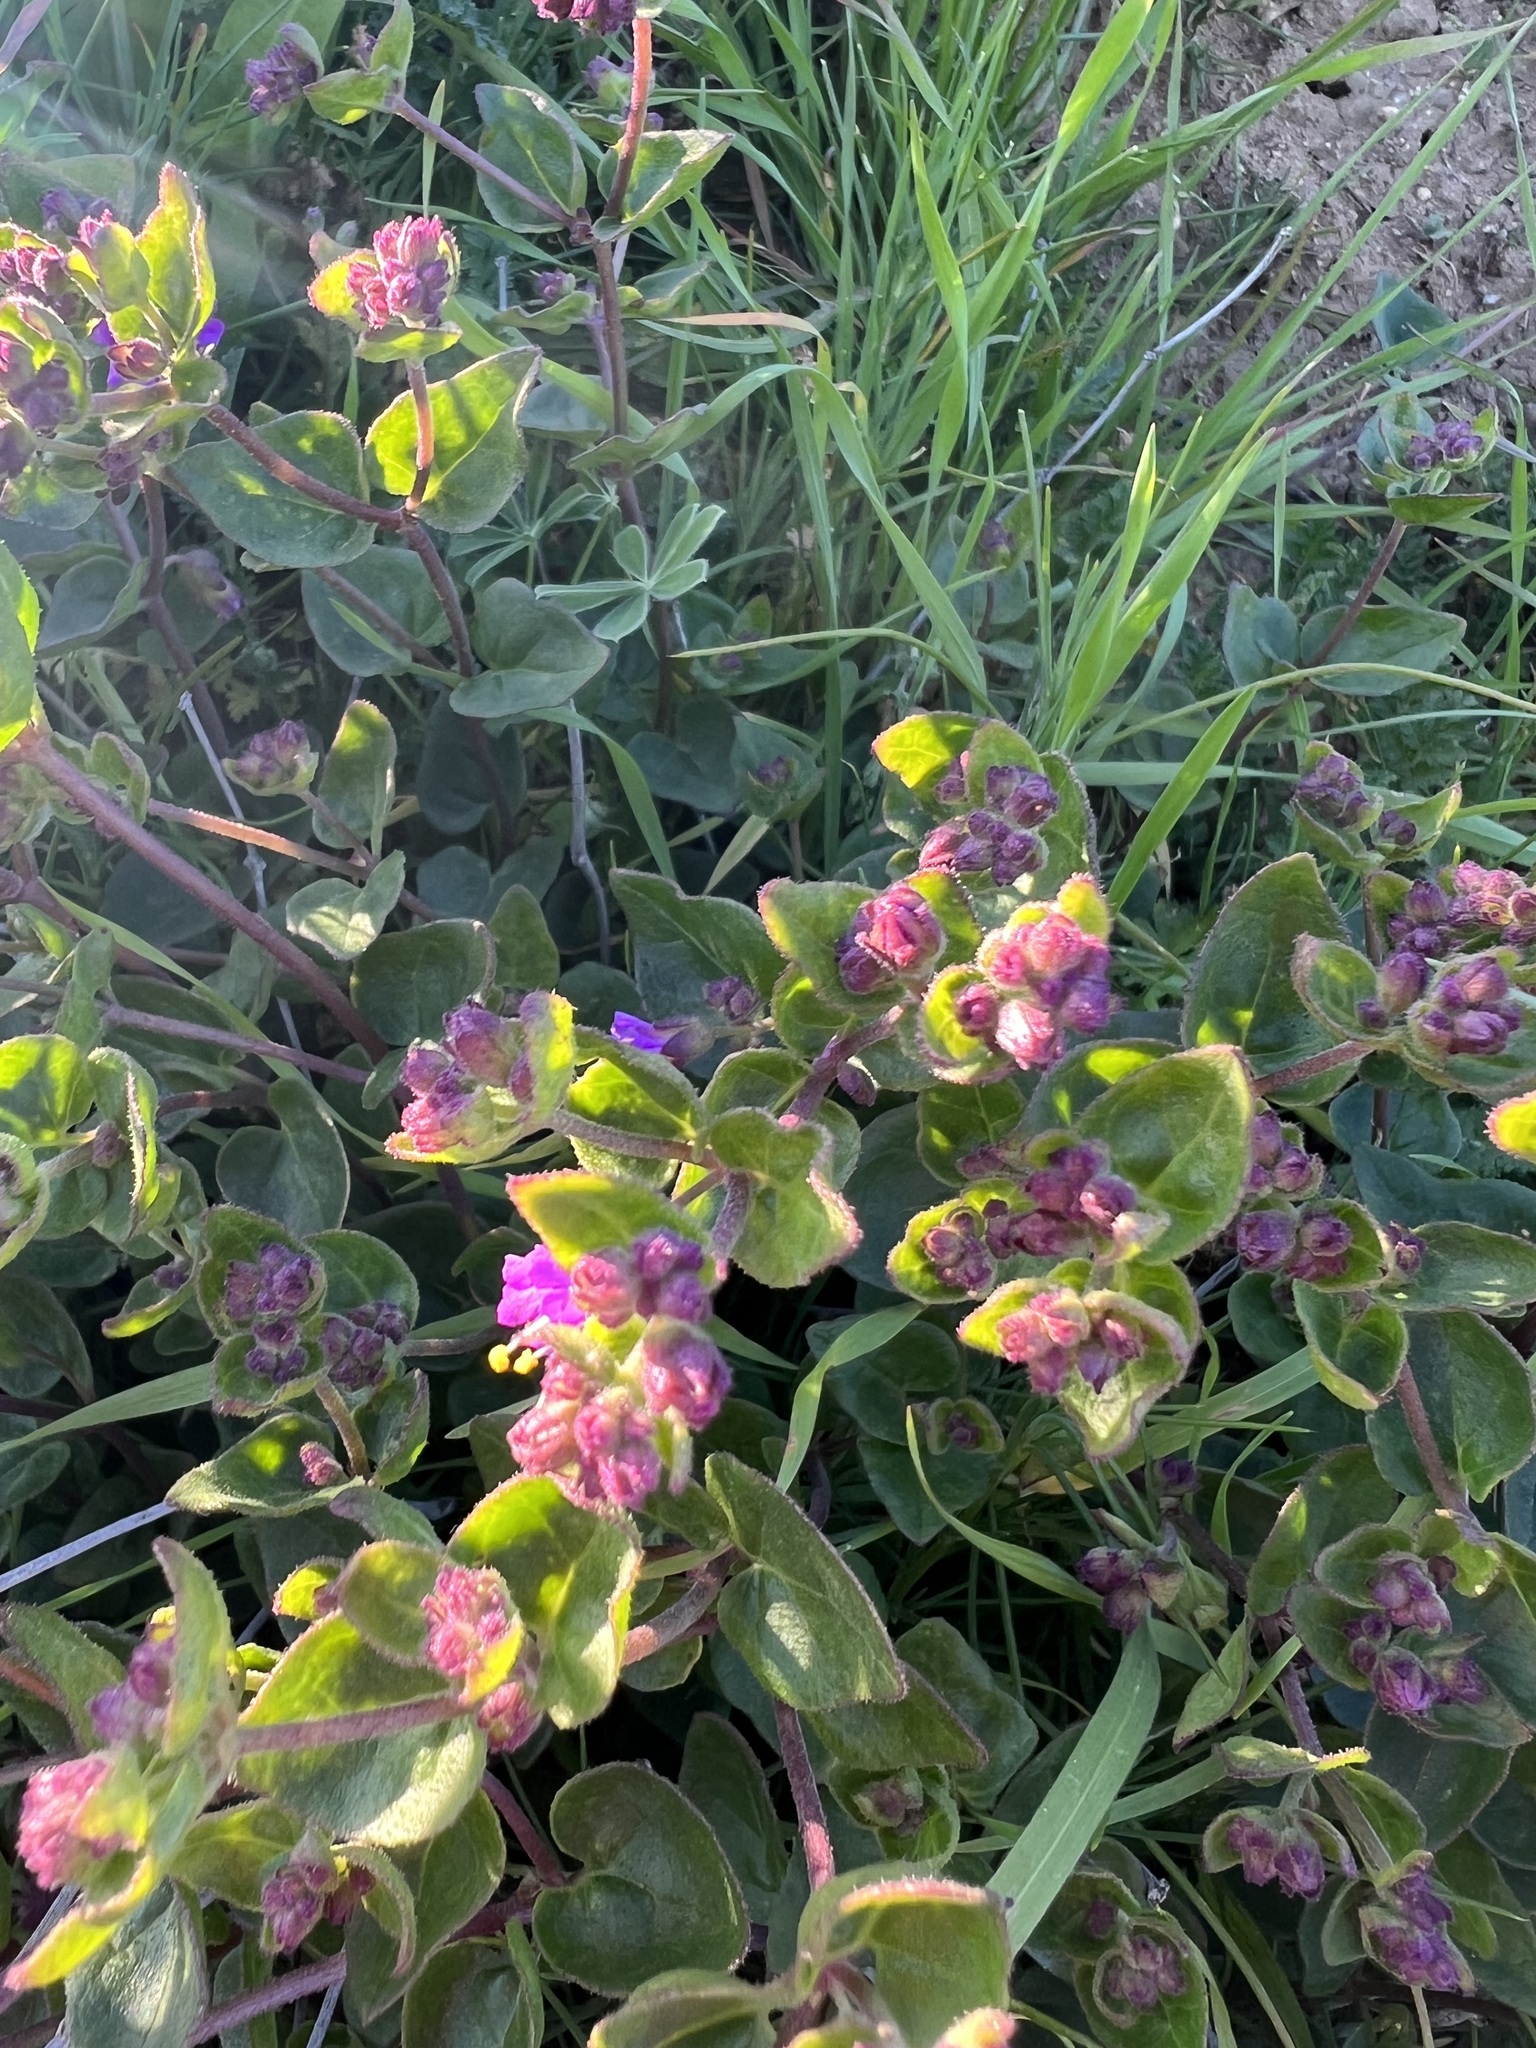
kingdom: Plantae
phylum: Tracheophyta
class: Magnoliopsida
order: Caryophyllales
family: Nyctaginaceae
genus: Mirabilis
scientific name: Mirabilis laevis
